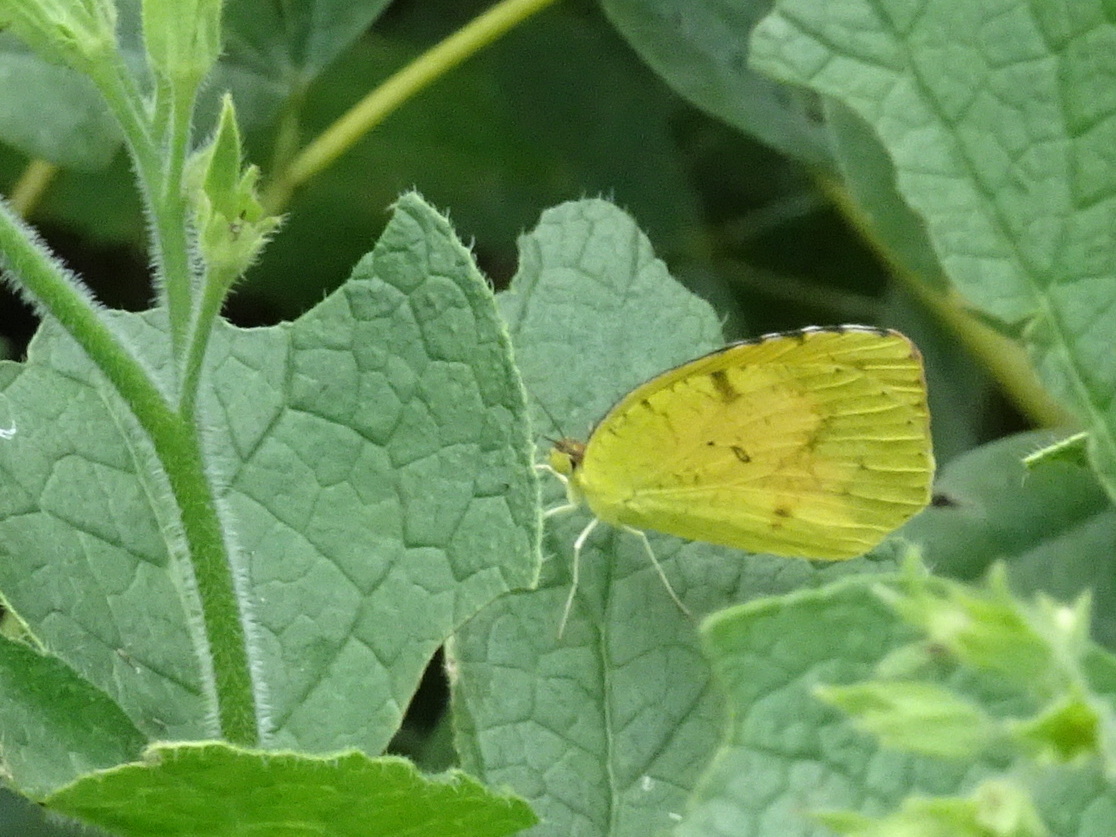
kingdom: Animalia
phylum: Arthropoda
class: Insecta
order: Lepidoptera
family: Pieridae
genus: Abaeis
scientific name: Abaeis nicippe
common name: Sleepy orange
